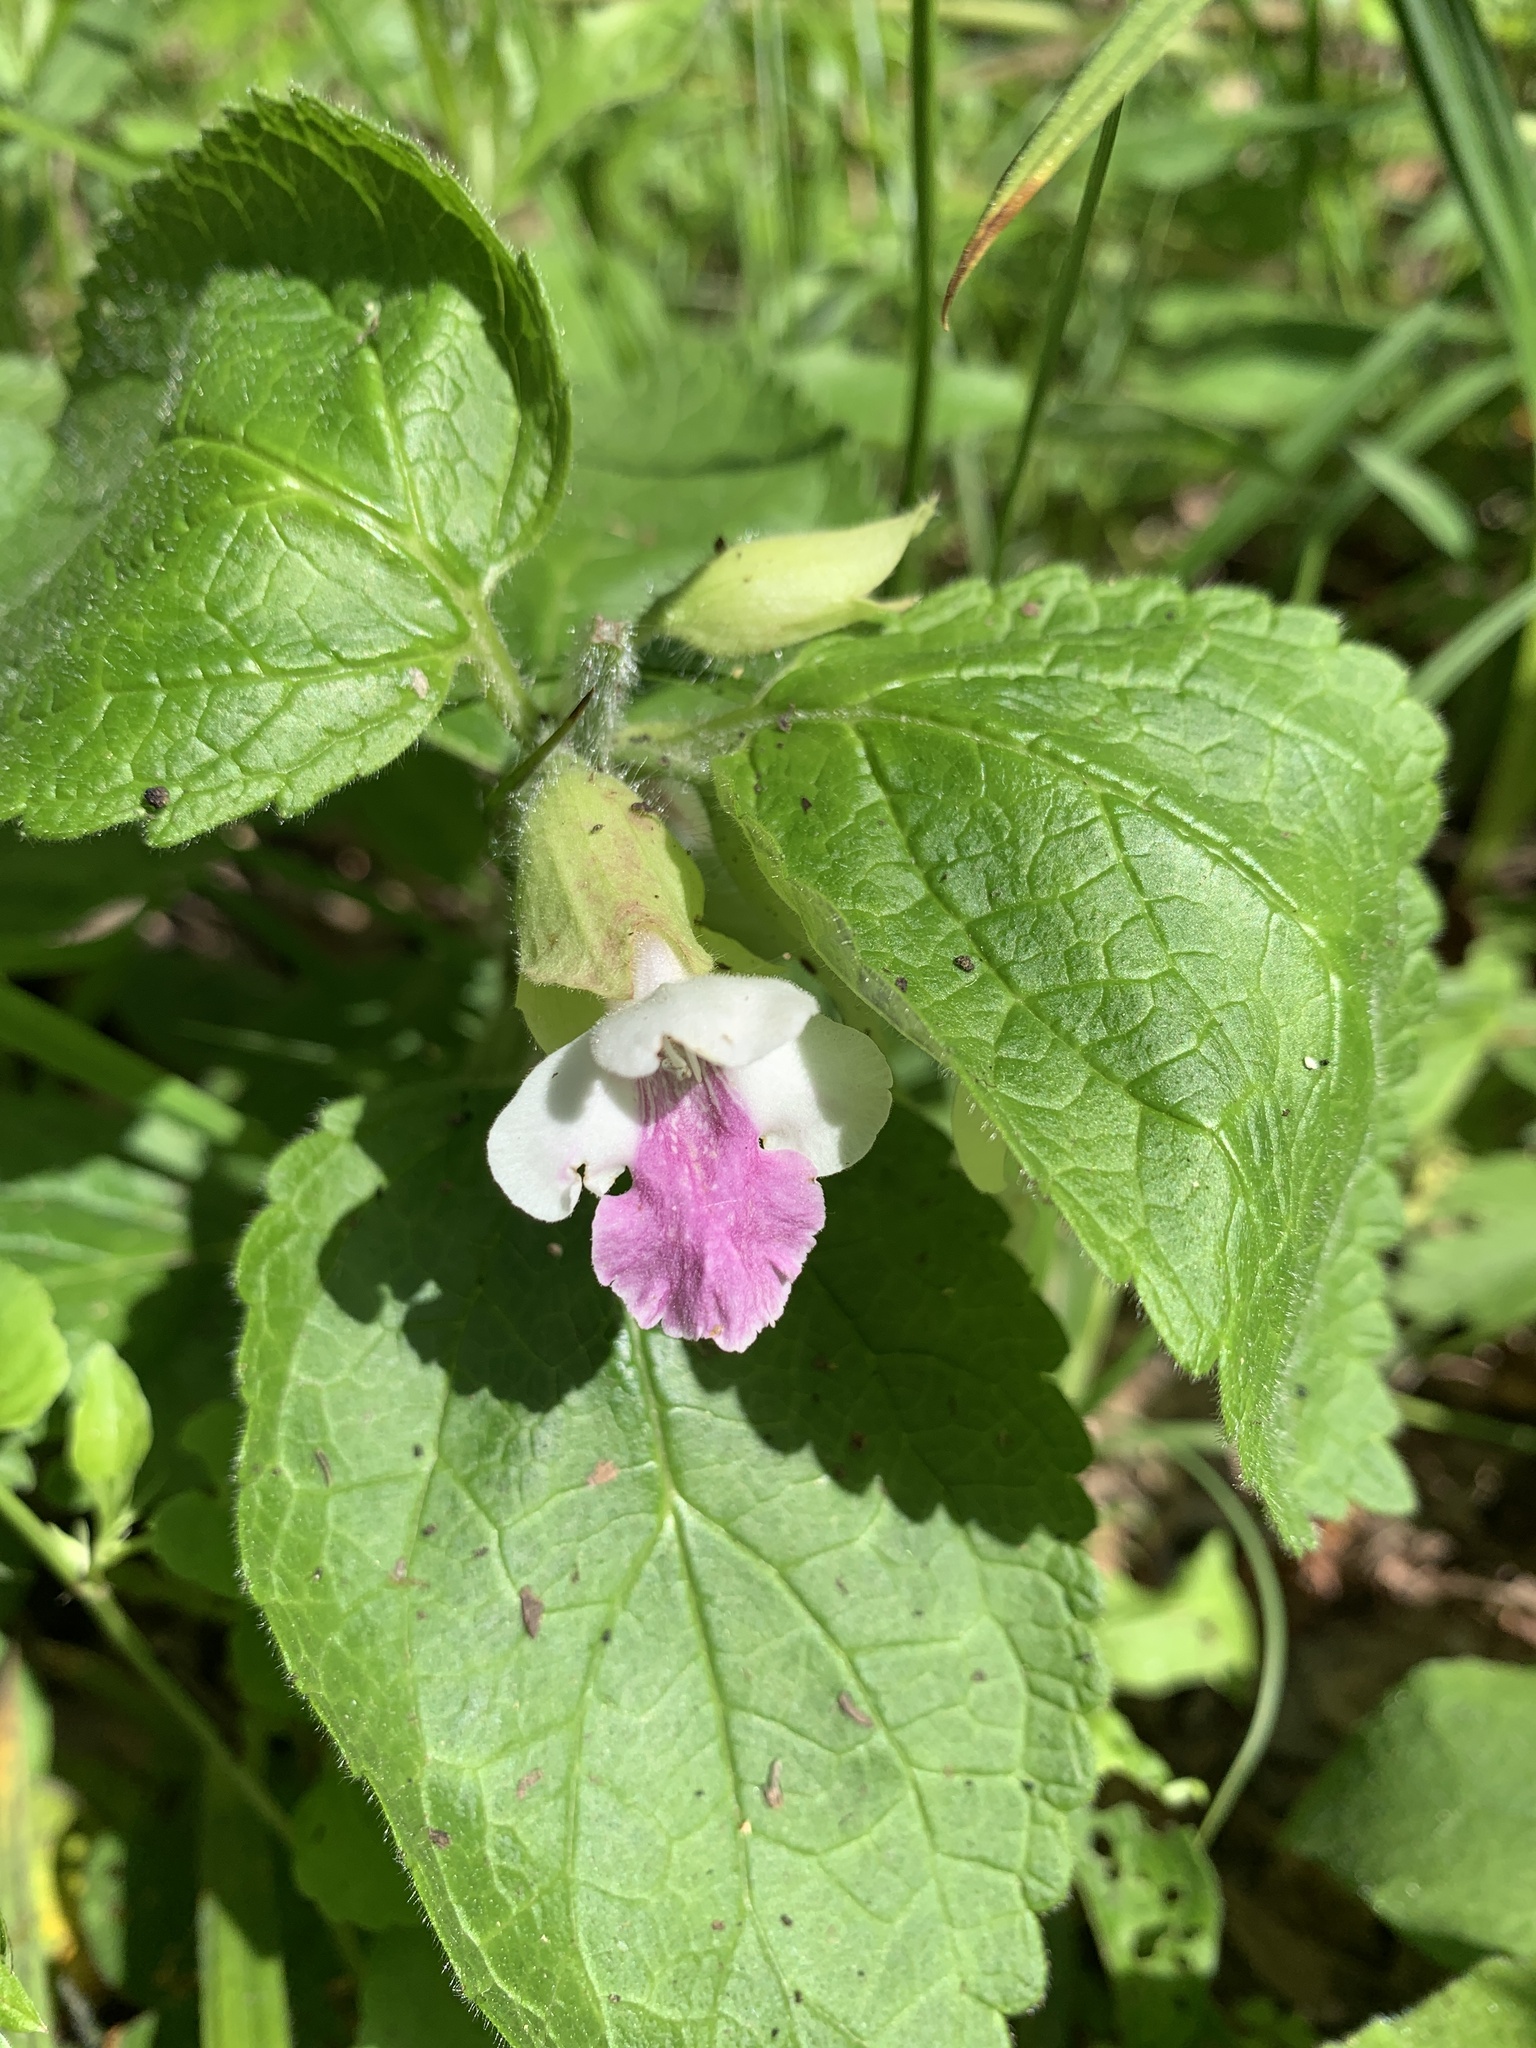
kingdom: Plantae
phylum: Tracheophyta
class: Magnoliopsida
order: Lamiales
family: Lamiaceae
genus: Melittis
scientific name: Melittis melissophyllum
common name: Bastard balm
